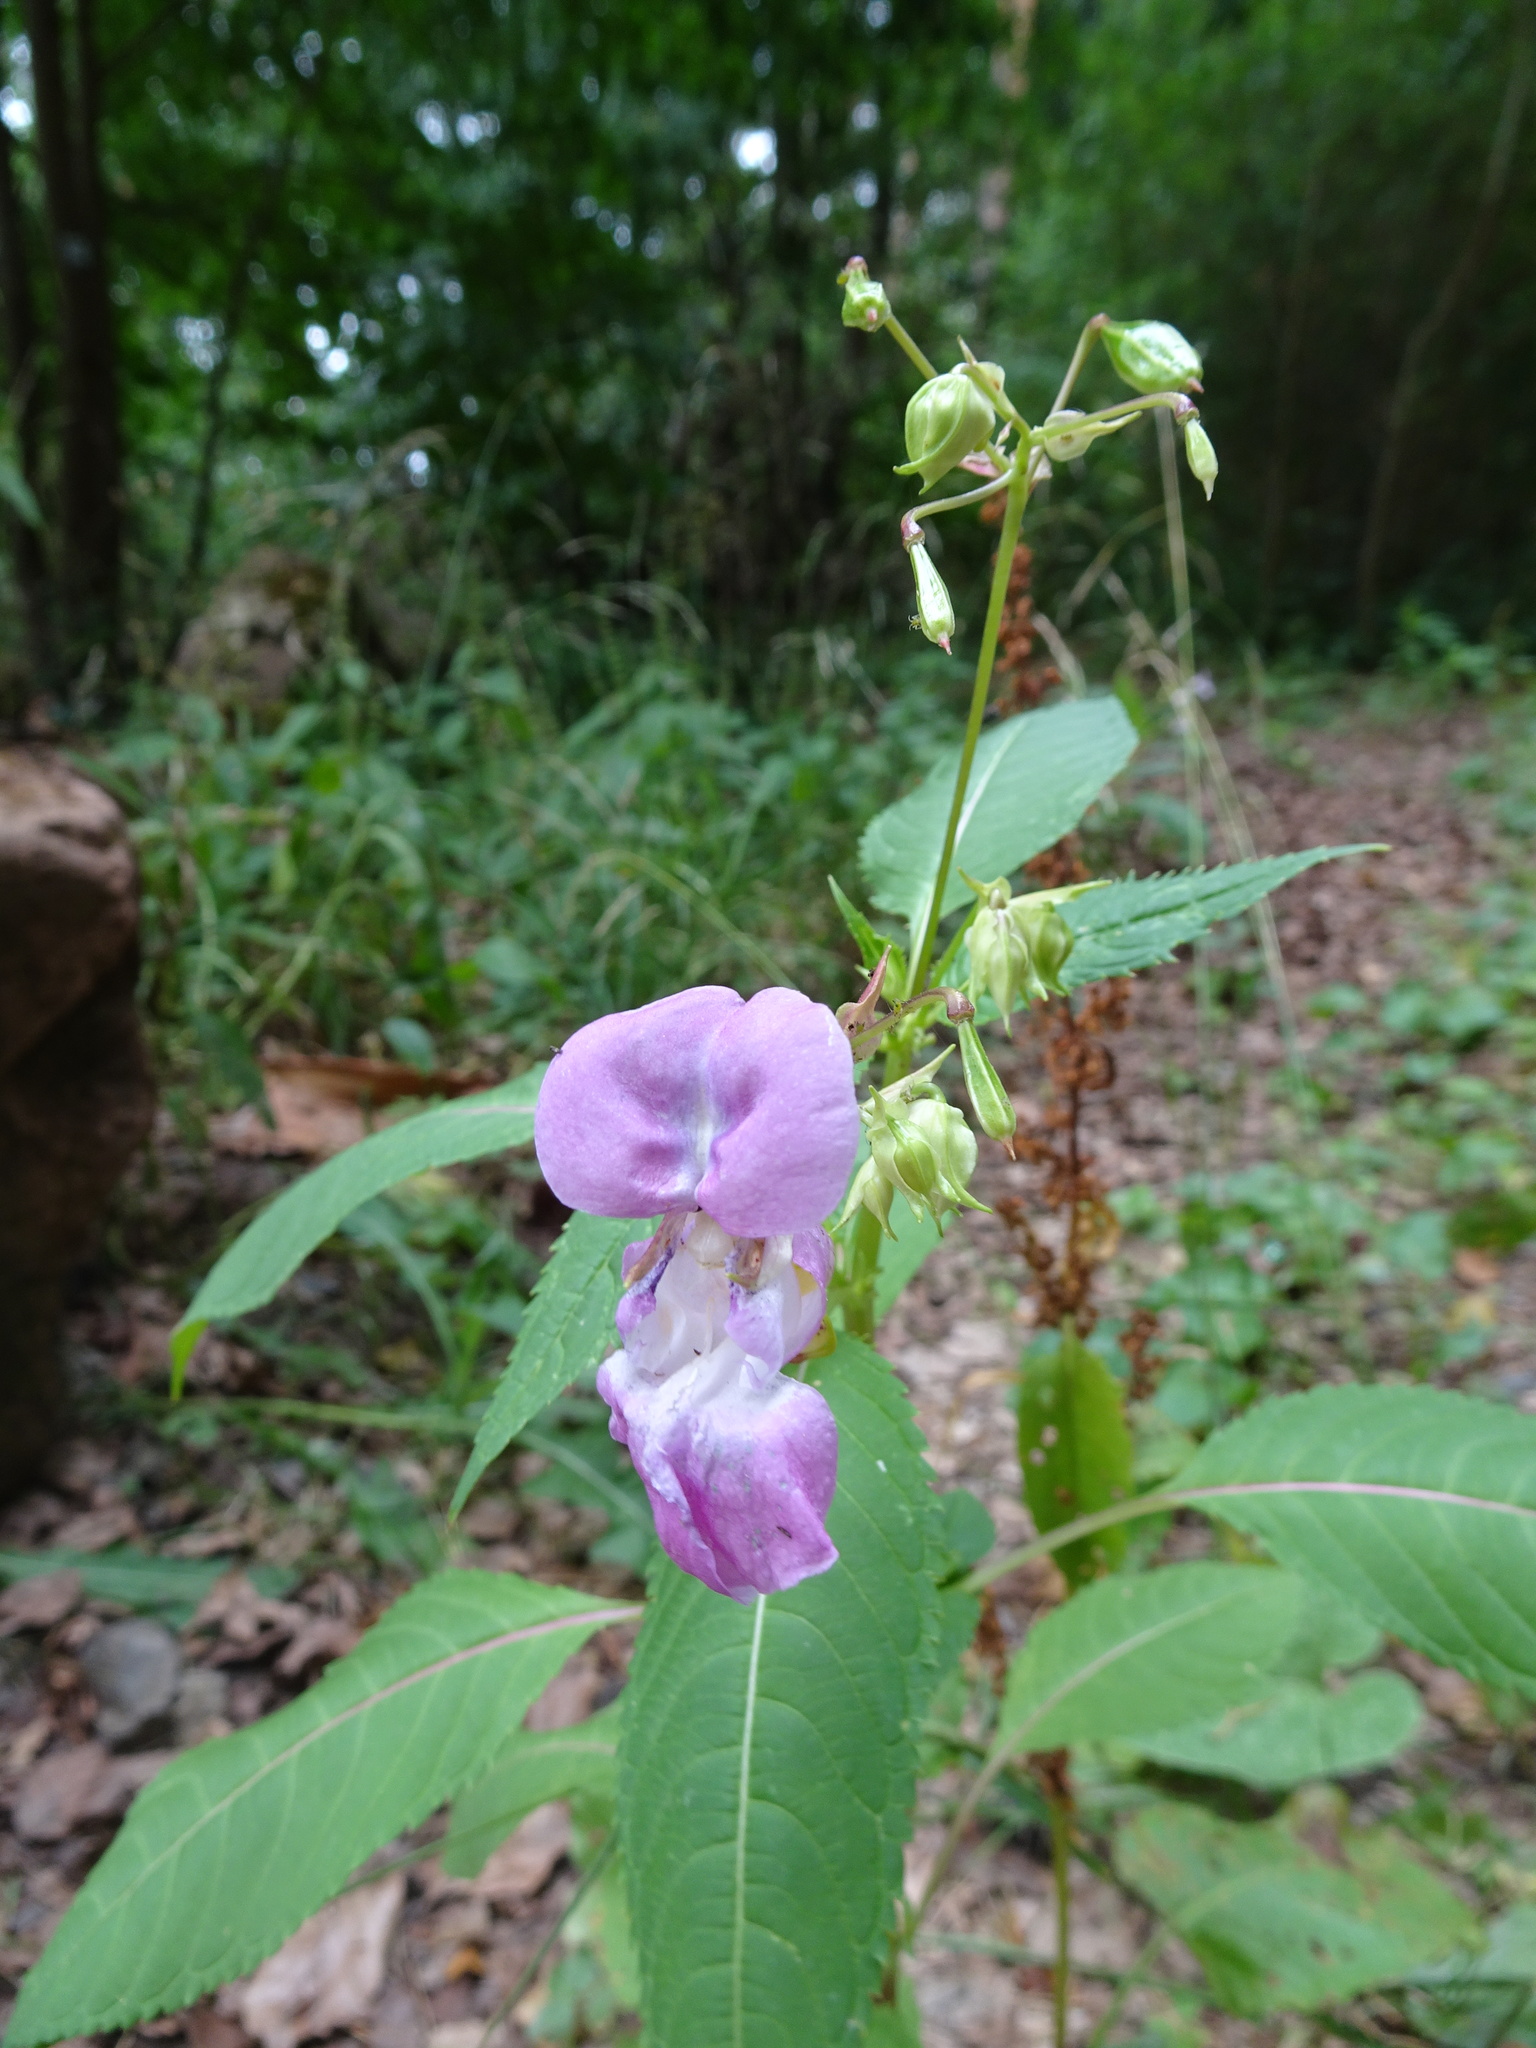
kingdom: Plantae
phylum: Tracheophyta
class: Magnoliopsida
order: Ericales
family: Balsaminaceae
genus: Impatiens
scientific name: Impatiens glandulifera
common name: Himalayan balsam
